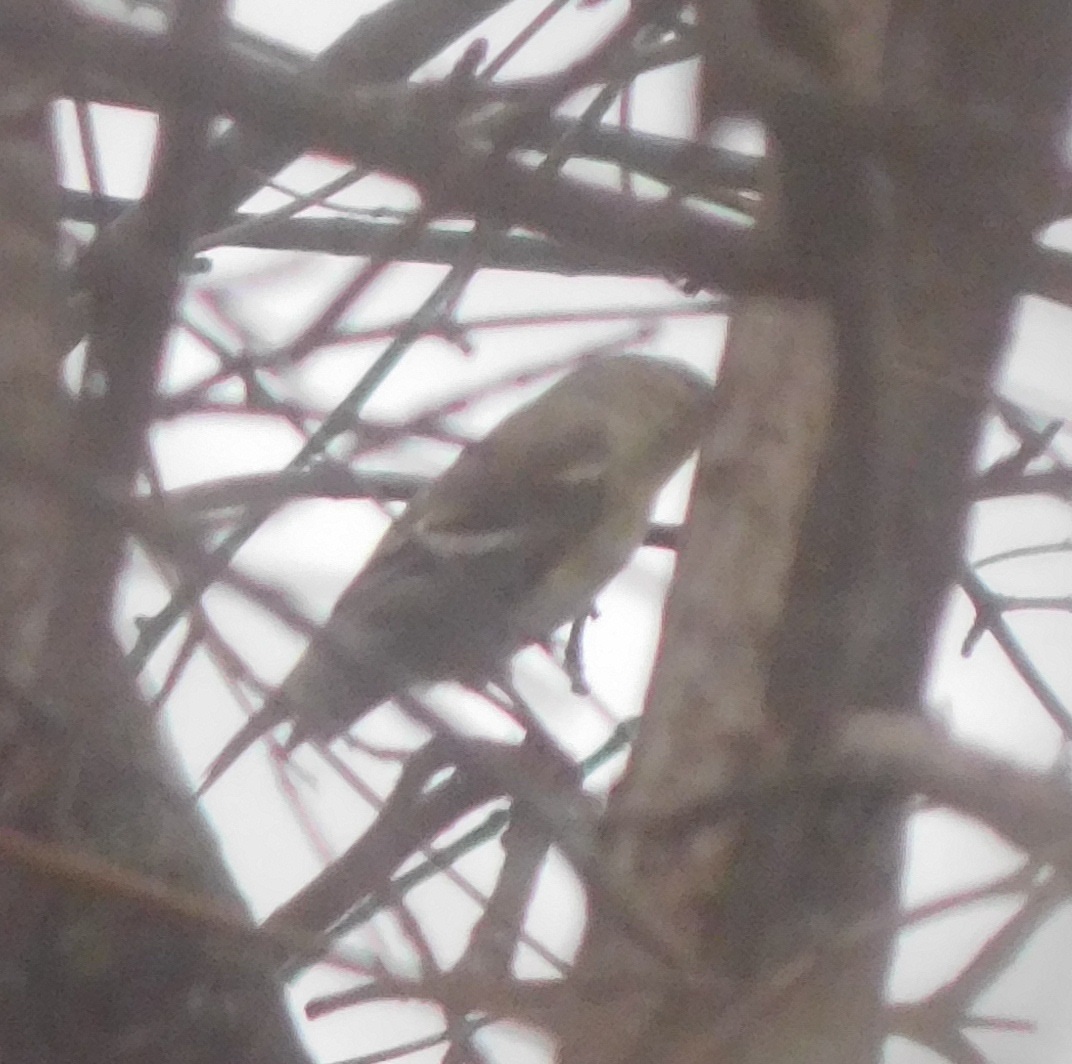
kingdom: Animalia
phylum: Chordata
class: Aves
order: Passeriformes
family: Fringillidae
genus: Spinus
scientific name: Spinus tristis
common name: American goldfinch
